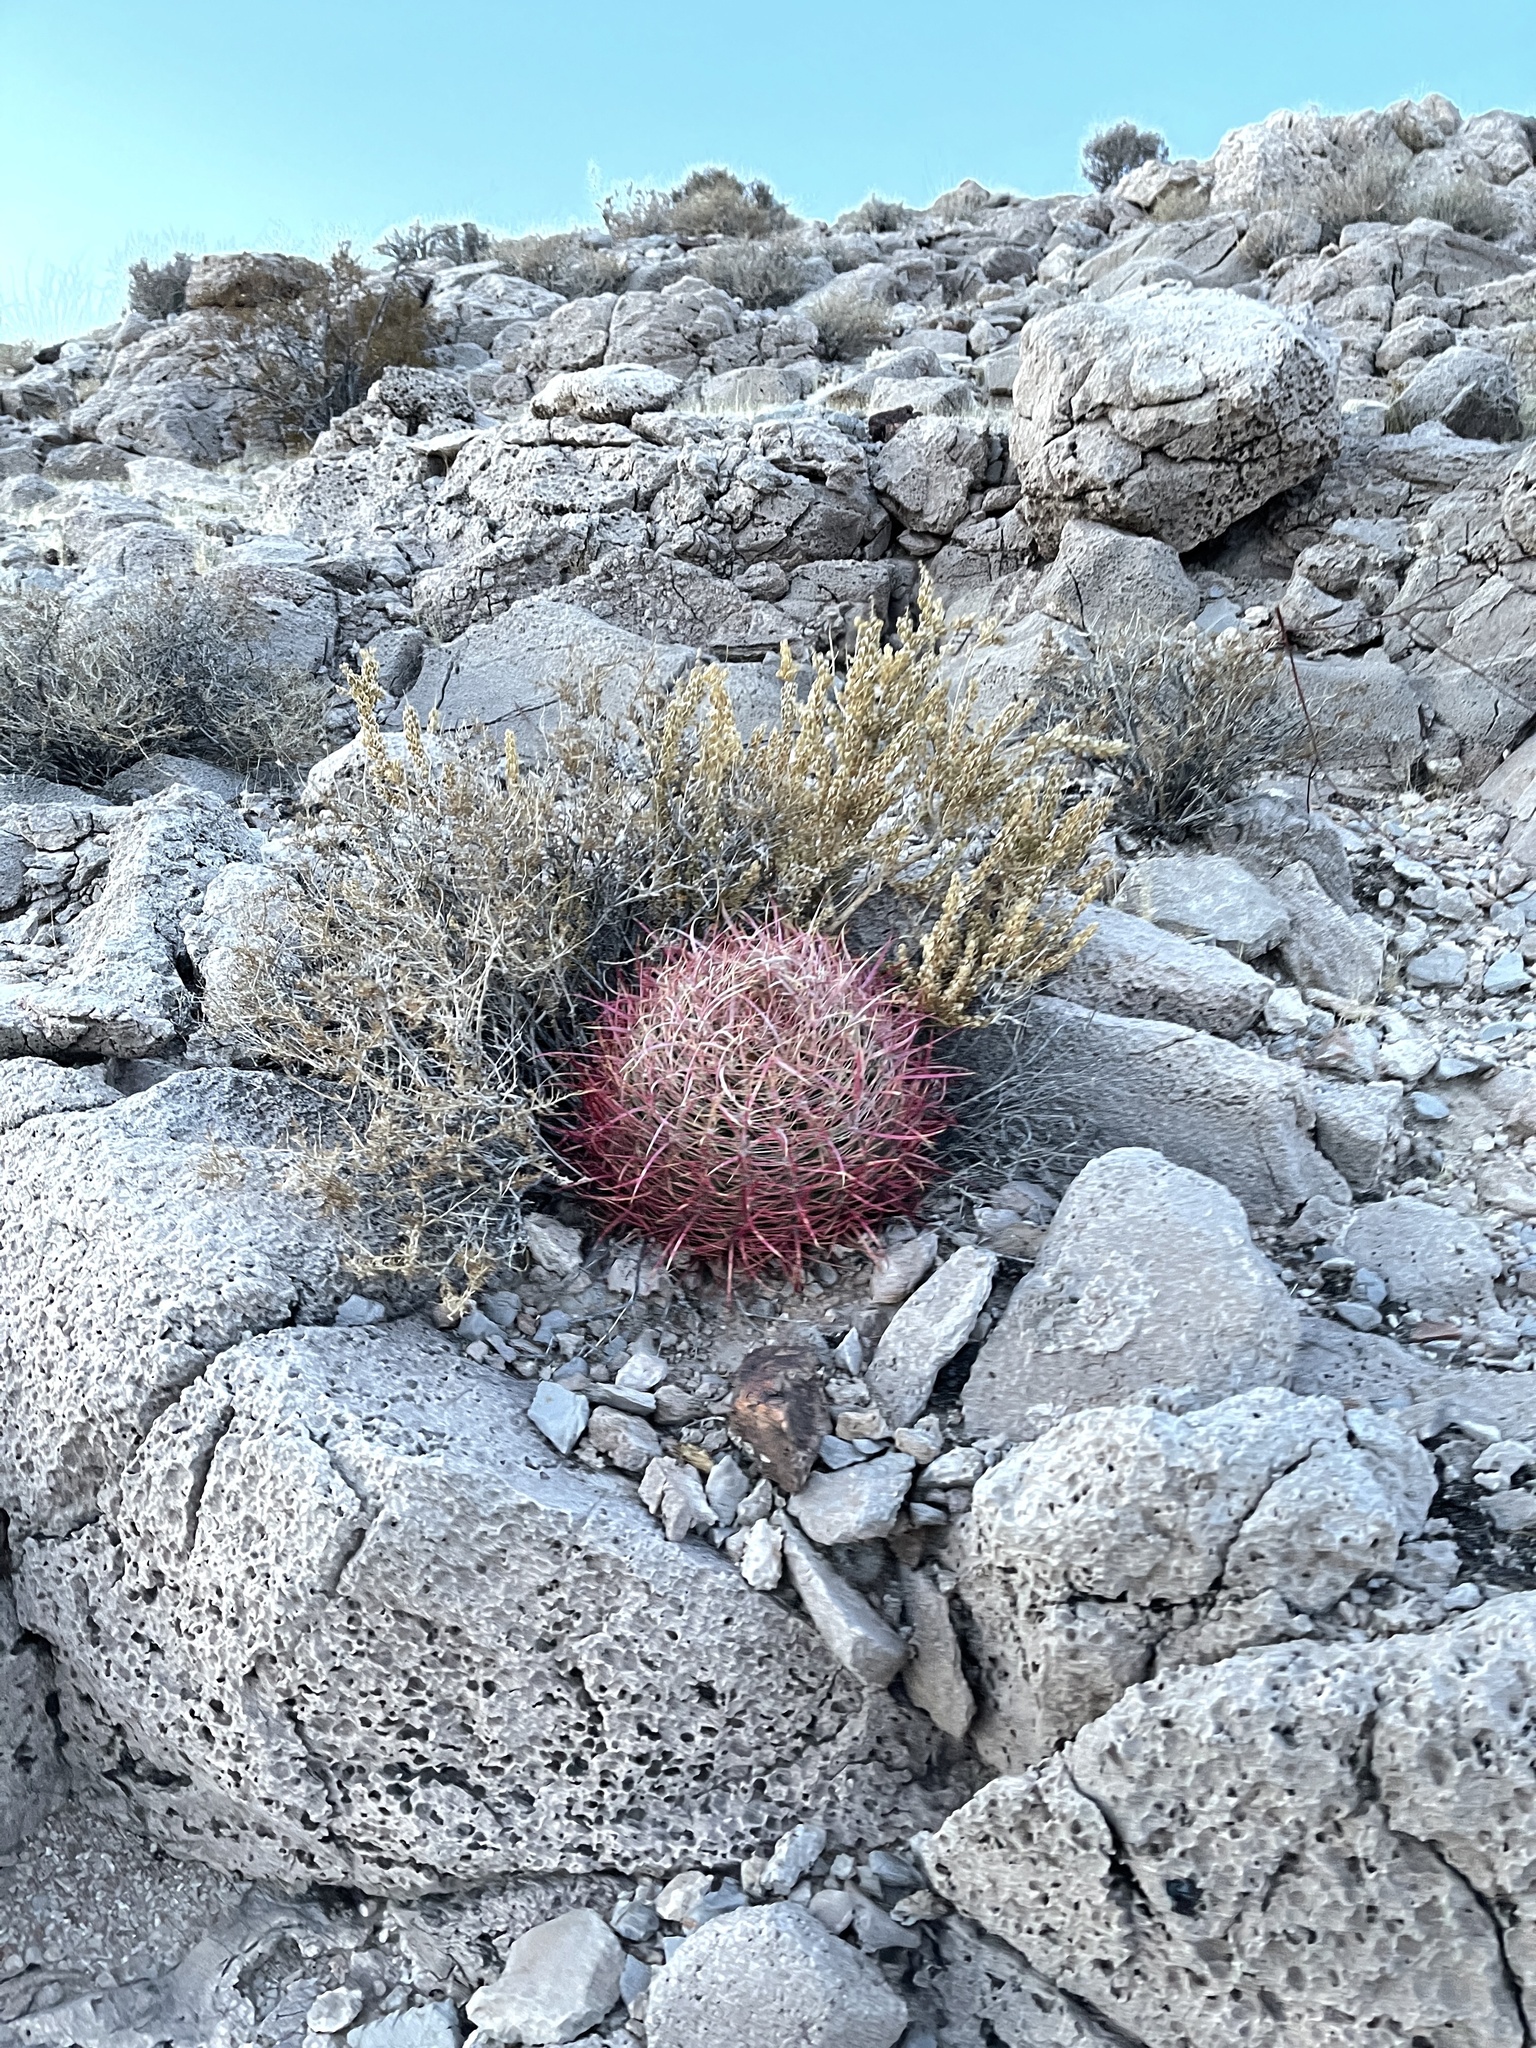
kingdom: Plantae
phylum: Tracheophyta
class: Magnoliopsida
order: Caryophyllales
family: Cactaceae
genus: Ferocactus
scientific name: Ferocactus cylindraceus
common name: California barrel cactus
